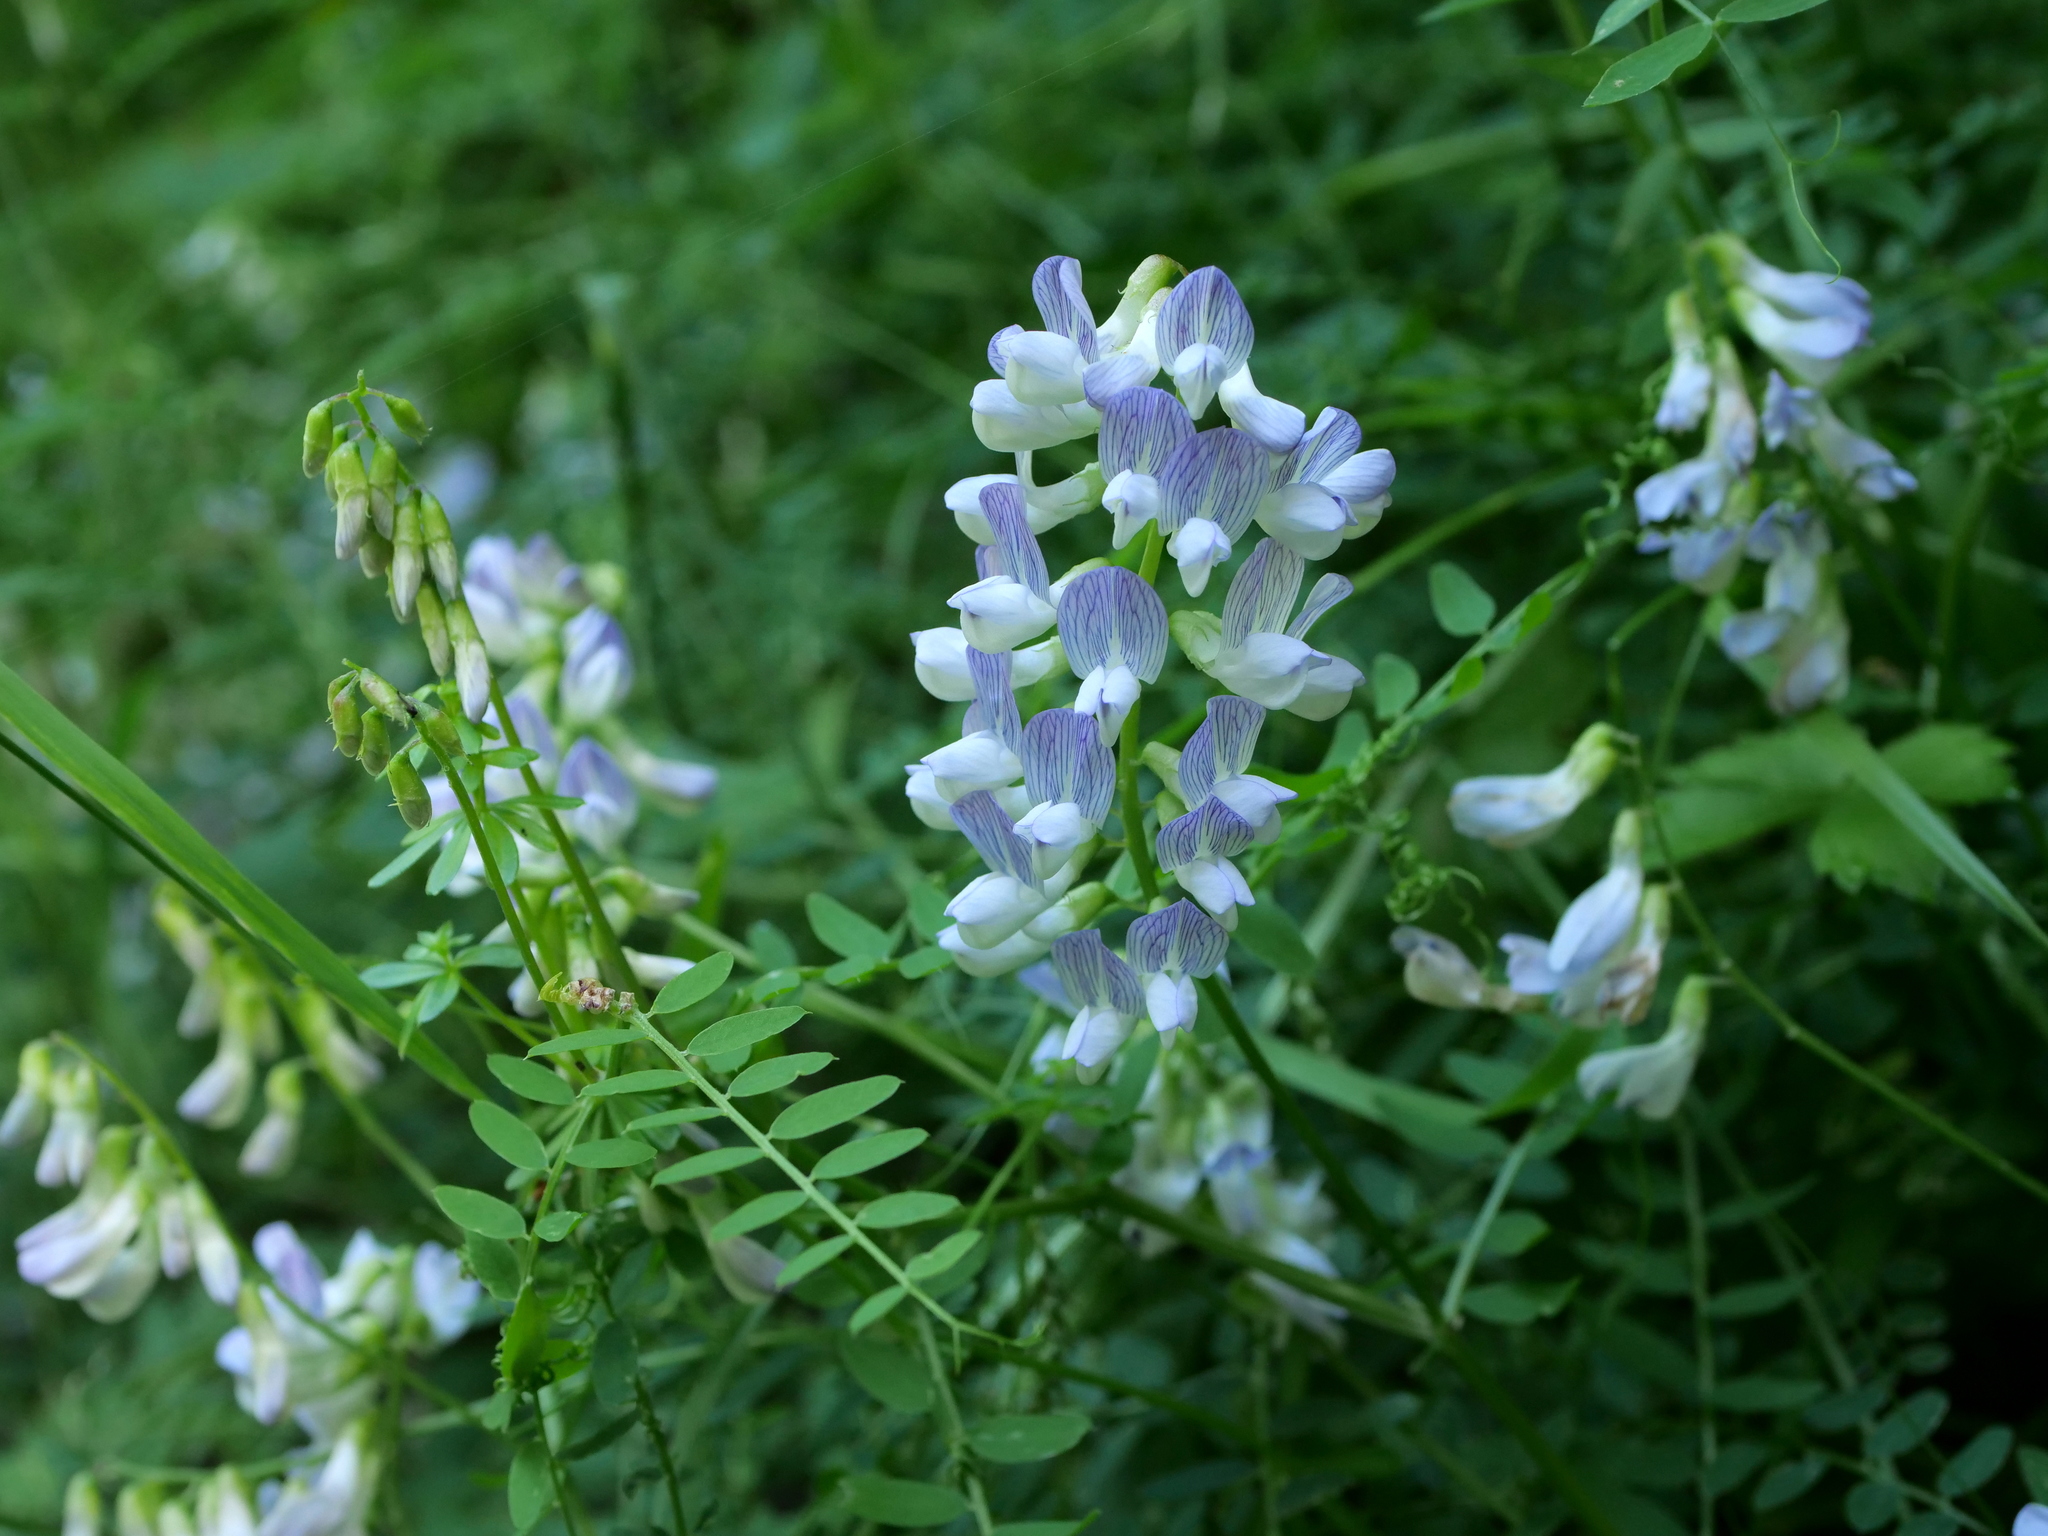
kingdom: Plantae
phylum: Tracheophyta
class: Magnoliopsida
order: Fabales
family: Fabaceae
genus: Vicia
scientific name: Vicia sylvatica
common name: Wood vetch
